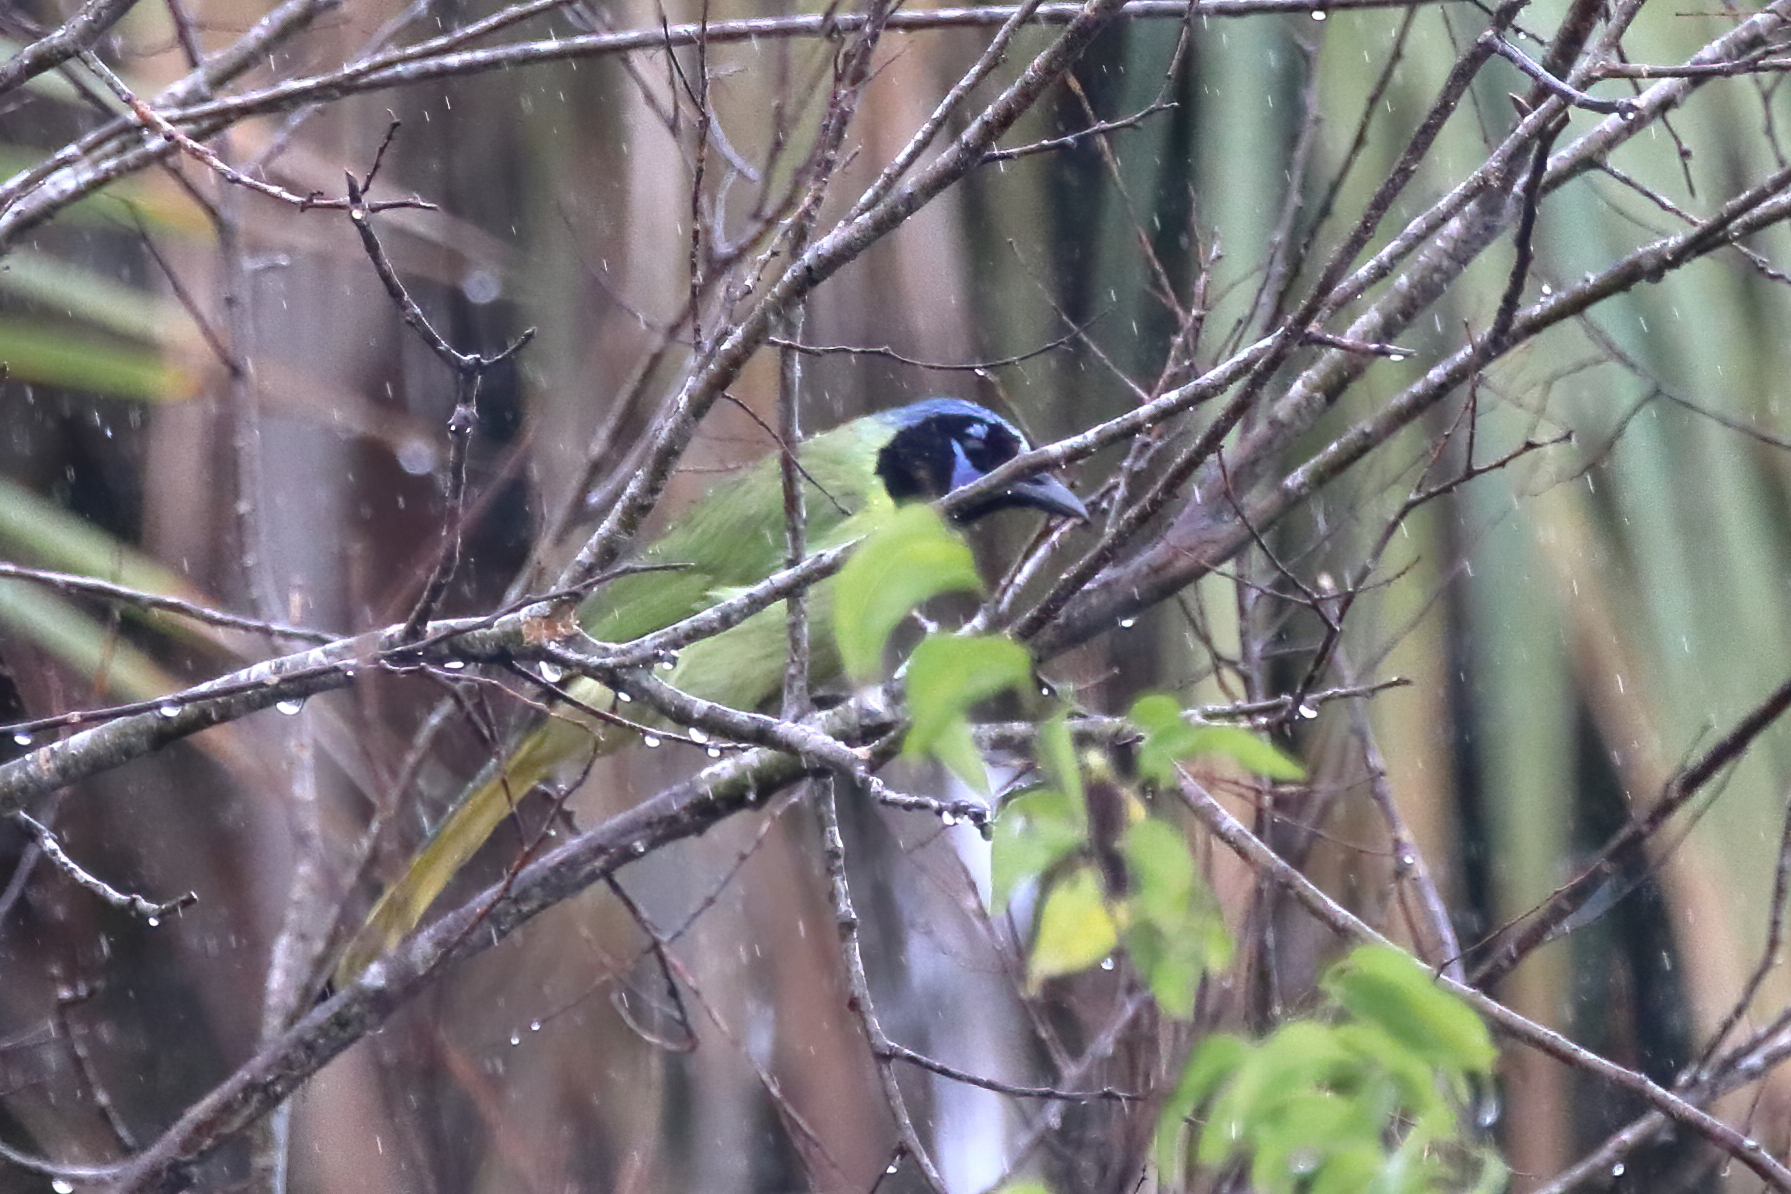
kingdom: Animalia
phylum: Chordata
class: Aves
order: Passeriformes
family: Corvidae
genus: Cyanocorax
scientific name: Cyanocorax yncas
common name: Green jay
